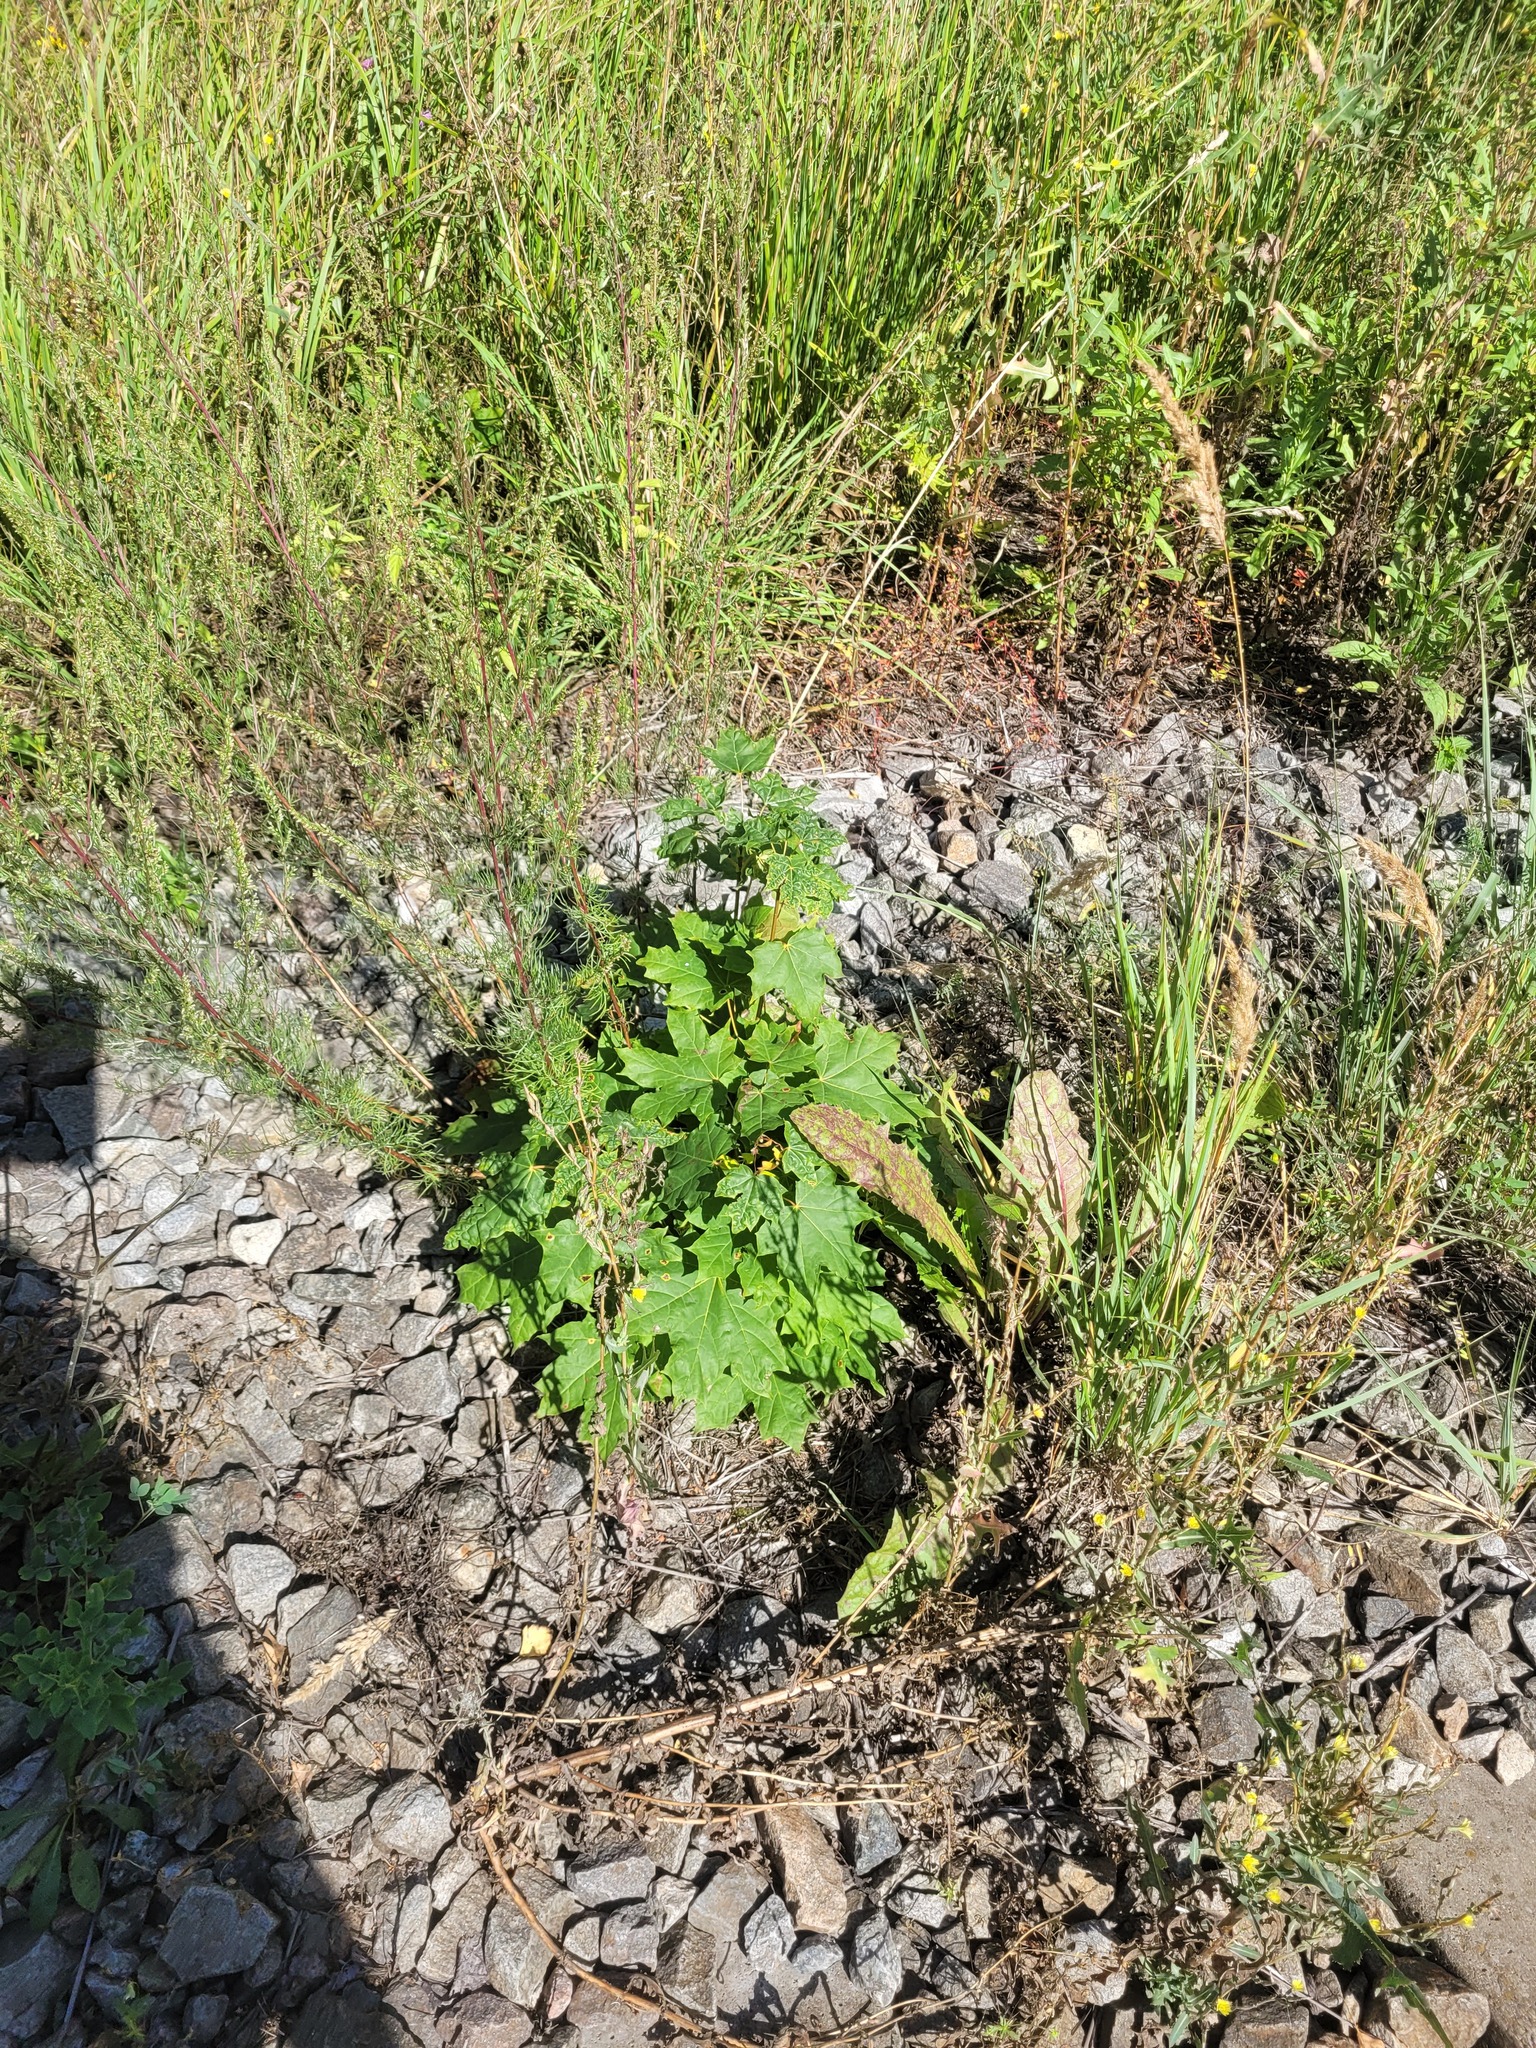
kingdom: Plantae
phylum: Tracheophyta
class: Magnoliopsida
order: Sapindales
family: Sapindaceae
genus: Acer
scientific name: Acer platanoides
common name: Norway maple
